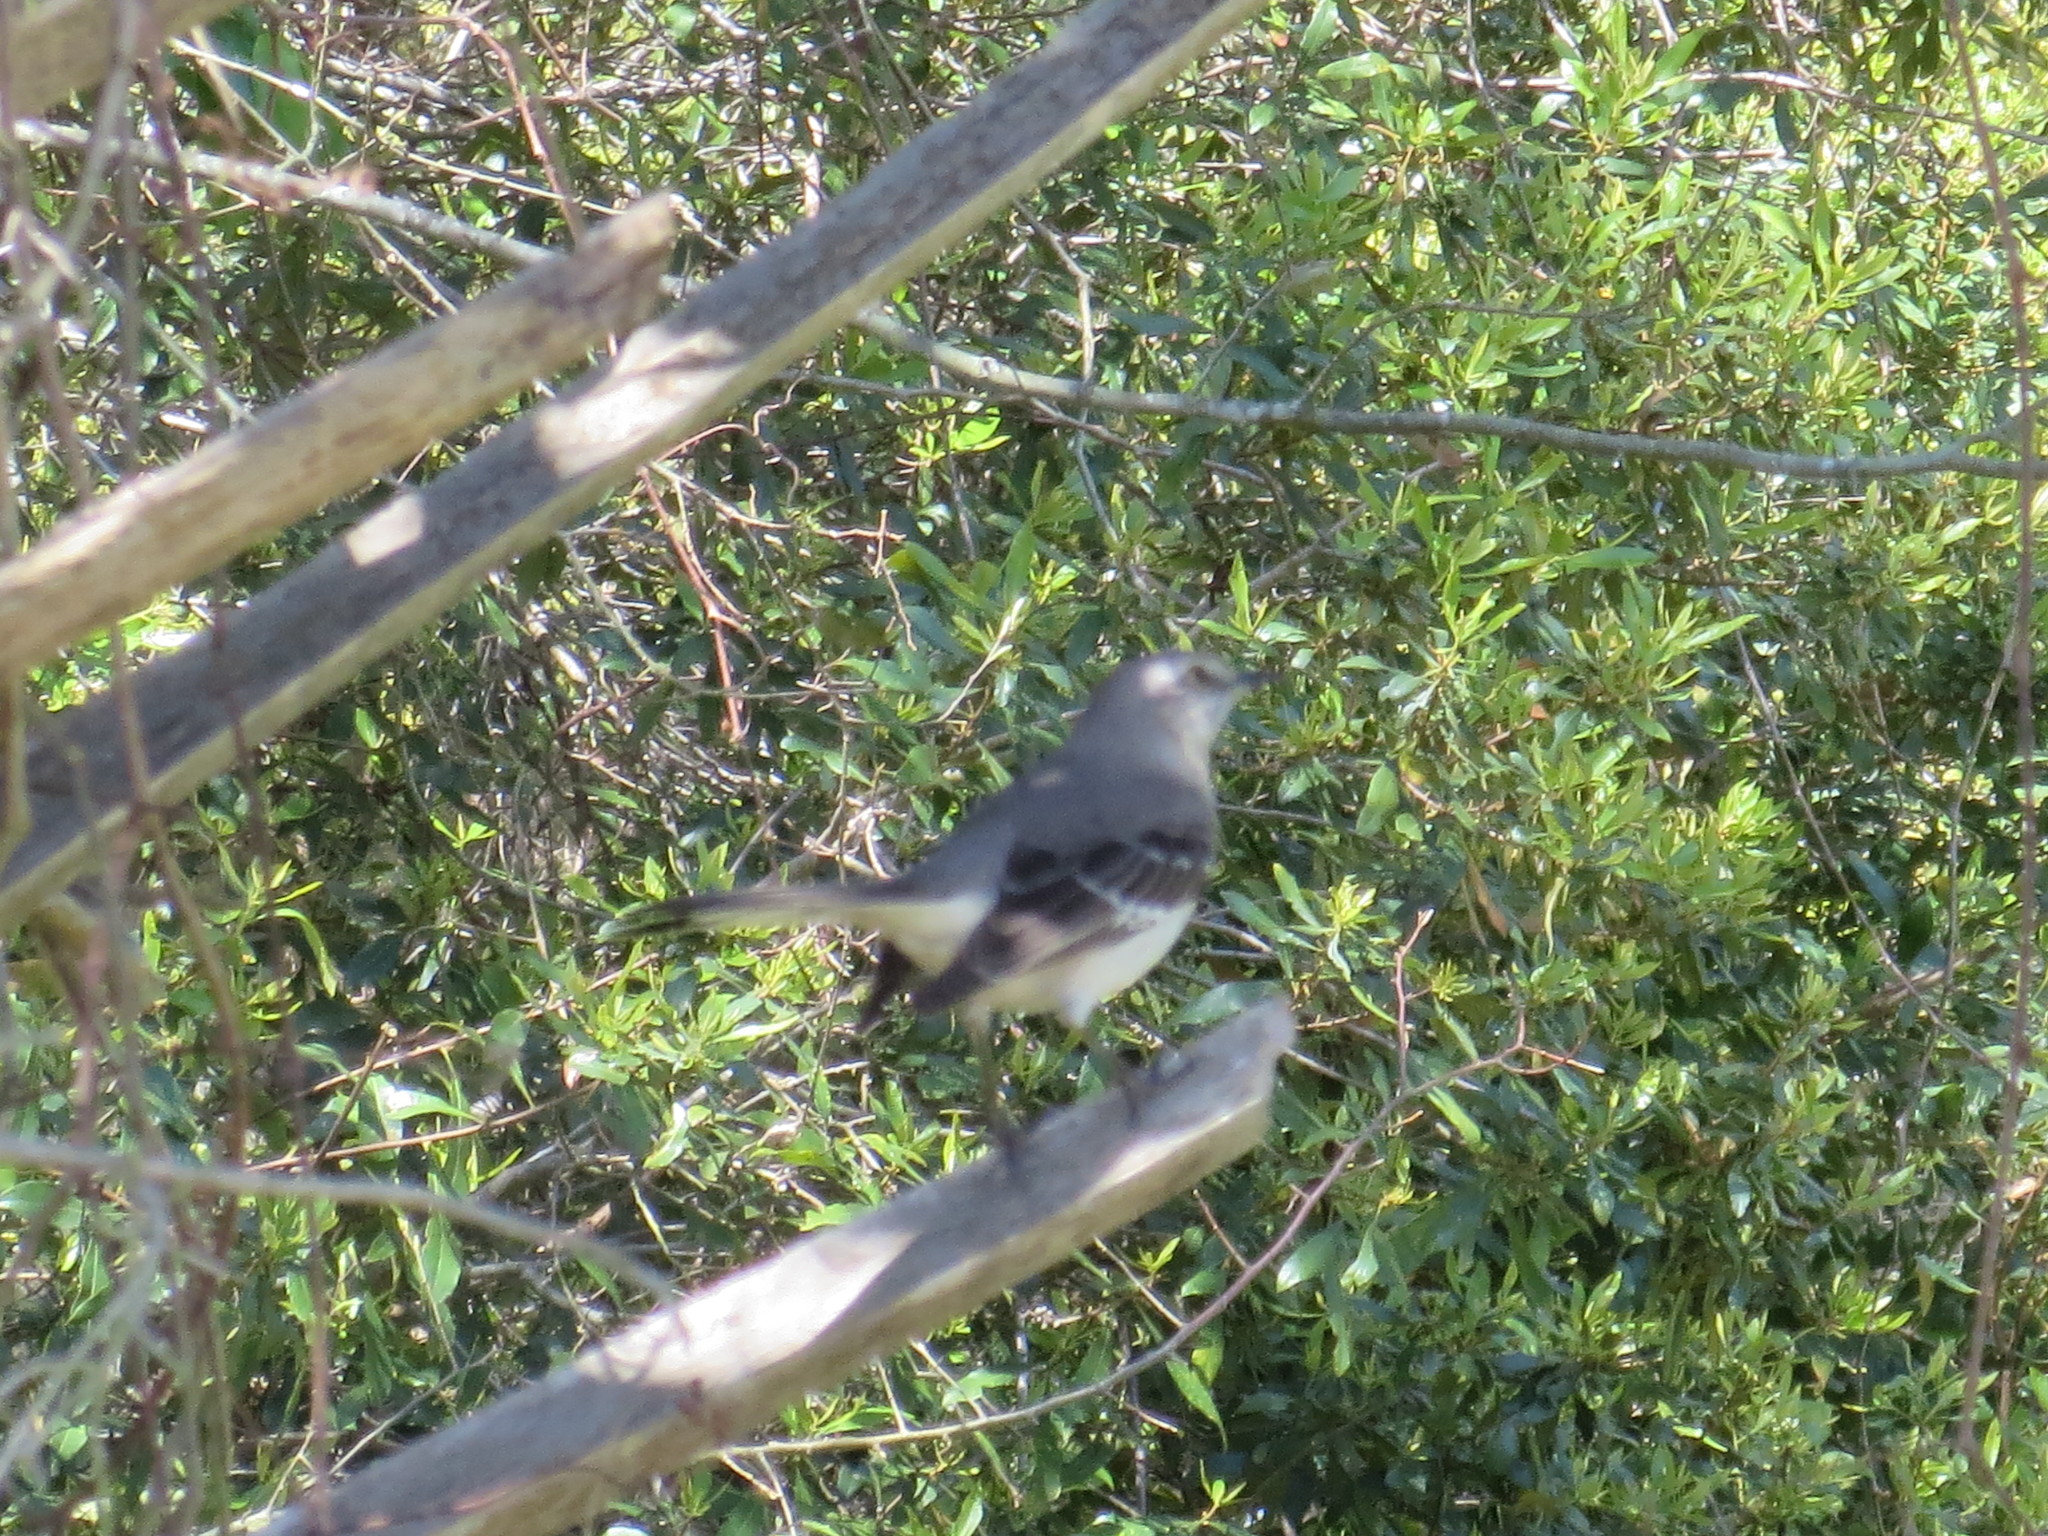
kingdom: Animalia
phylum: Chordata
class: Aves
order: Passeriformes
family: Mimidae
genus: Mimus
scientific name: Mimus polyglottos
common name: Northern mockingbird
